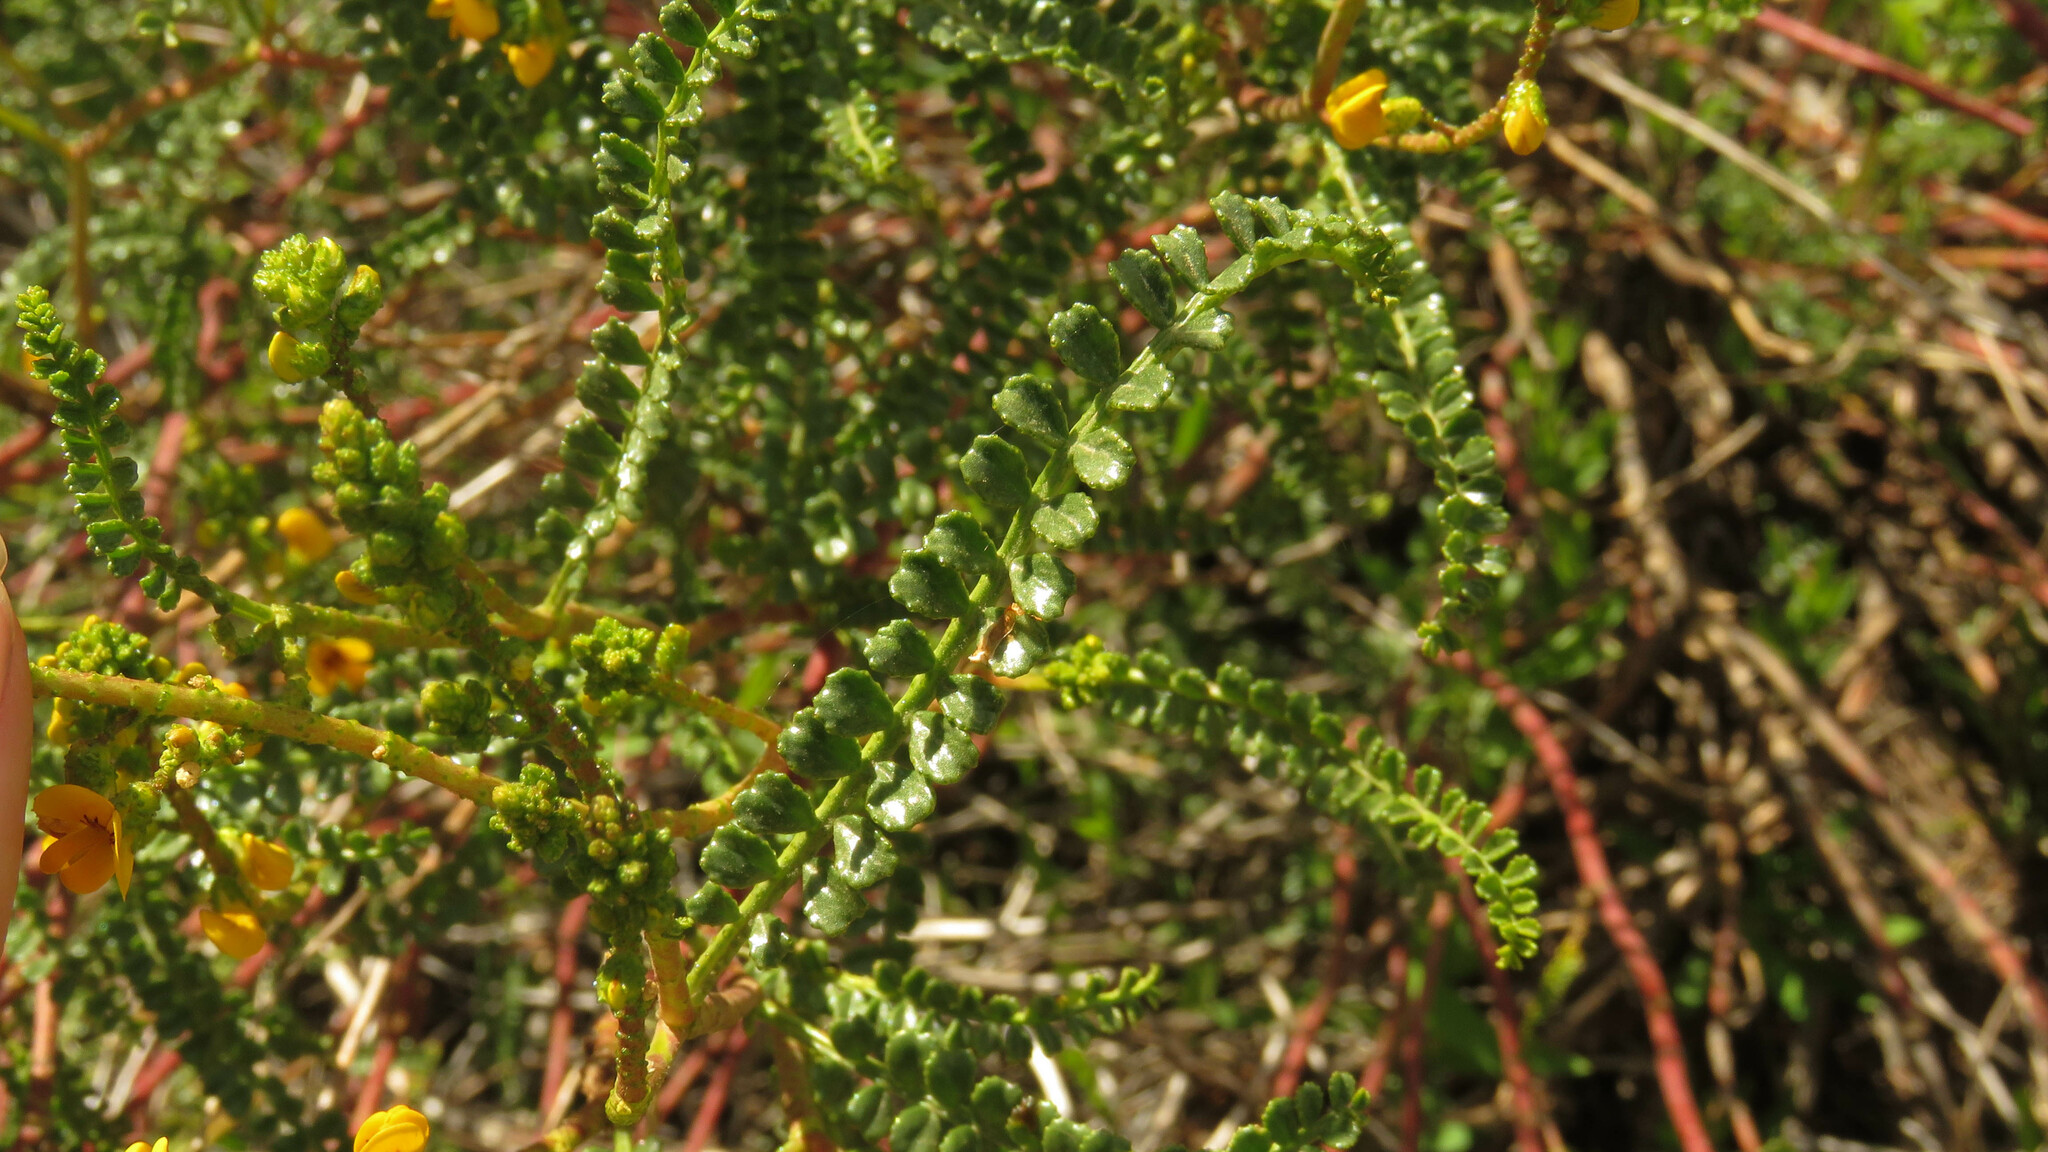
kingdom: Plantae
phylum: Tracheophyta
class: Magnoliopsida
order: Fabales
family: Fabaceae
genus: Adesmia
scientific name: Adesmia boronioides
